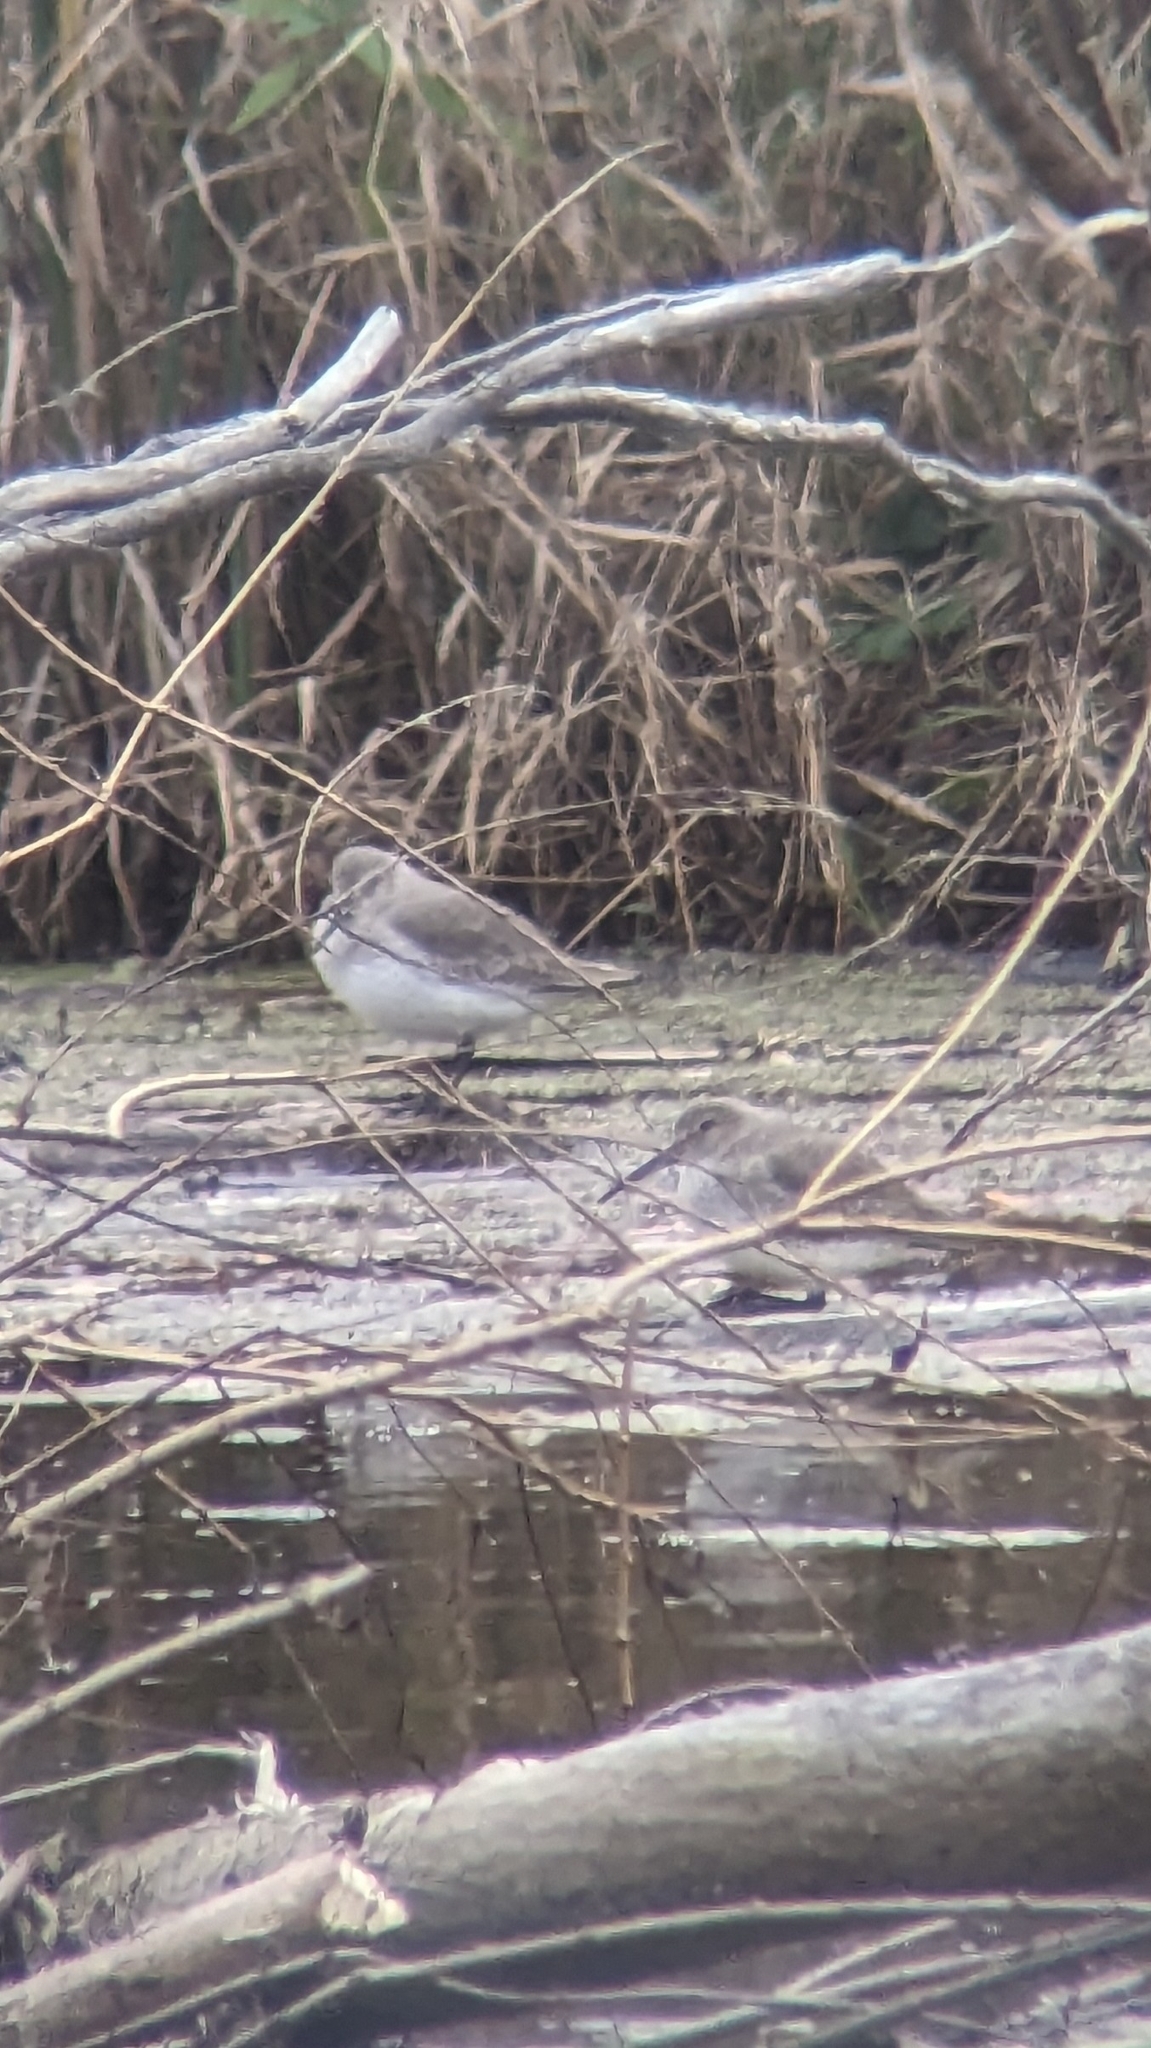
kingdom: Animalia
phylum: Chordata
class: Aves
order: Charadriiformes
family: Scolopacidae
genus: Calidris
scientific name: Calidris alpina
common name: Dunlin
